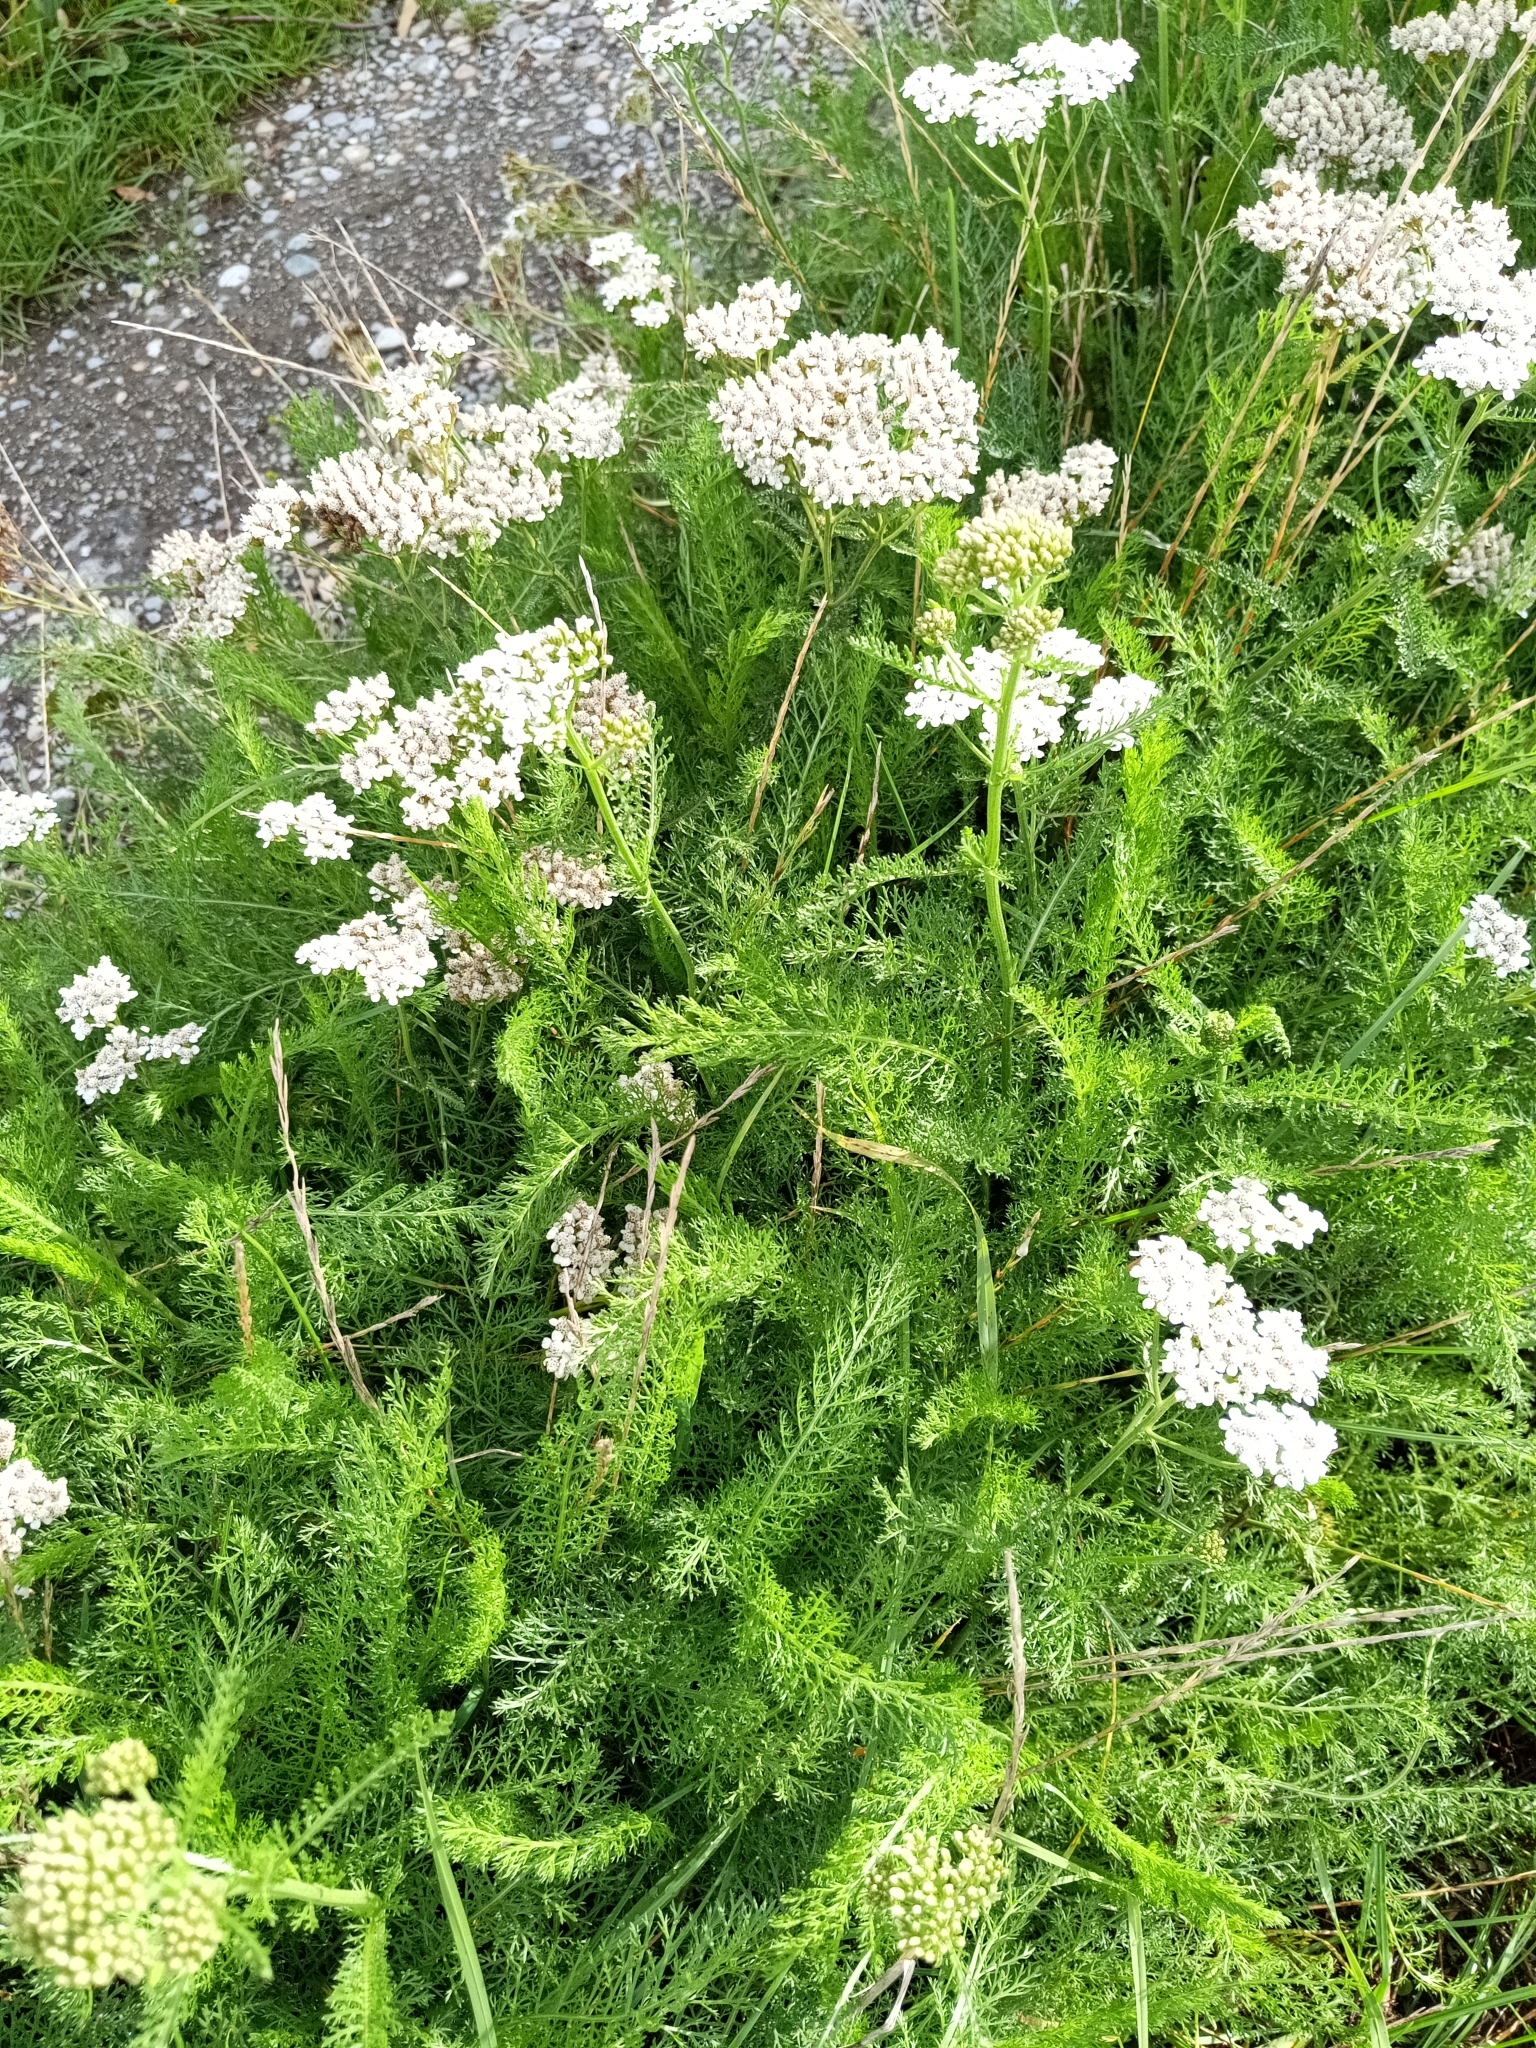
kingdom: Plantae
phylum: Tracheophyta
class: Magnoliopsida
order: Asterales
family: Asteraceae
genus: Achillea
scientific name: Achillea millefolium
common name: Yarrow
